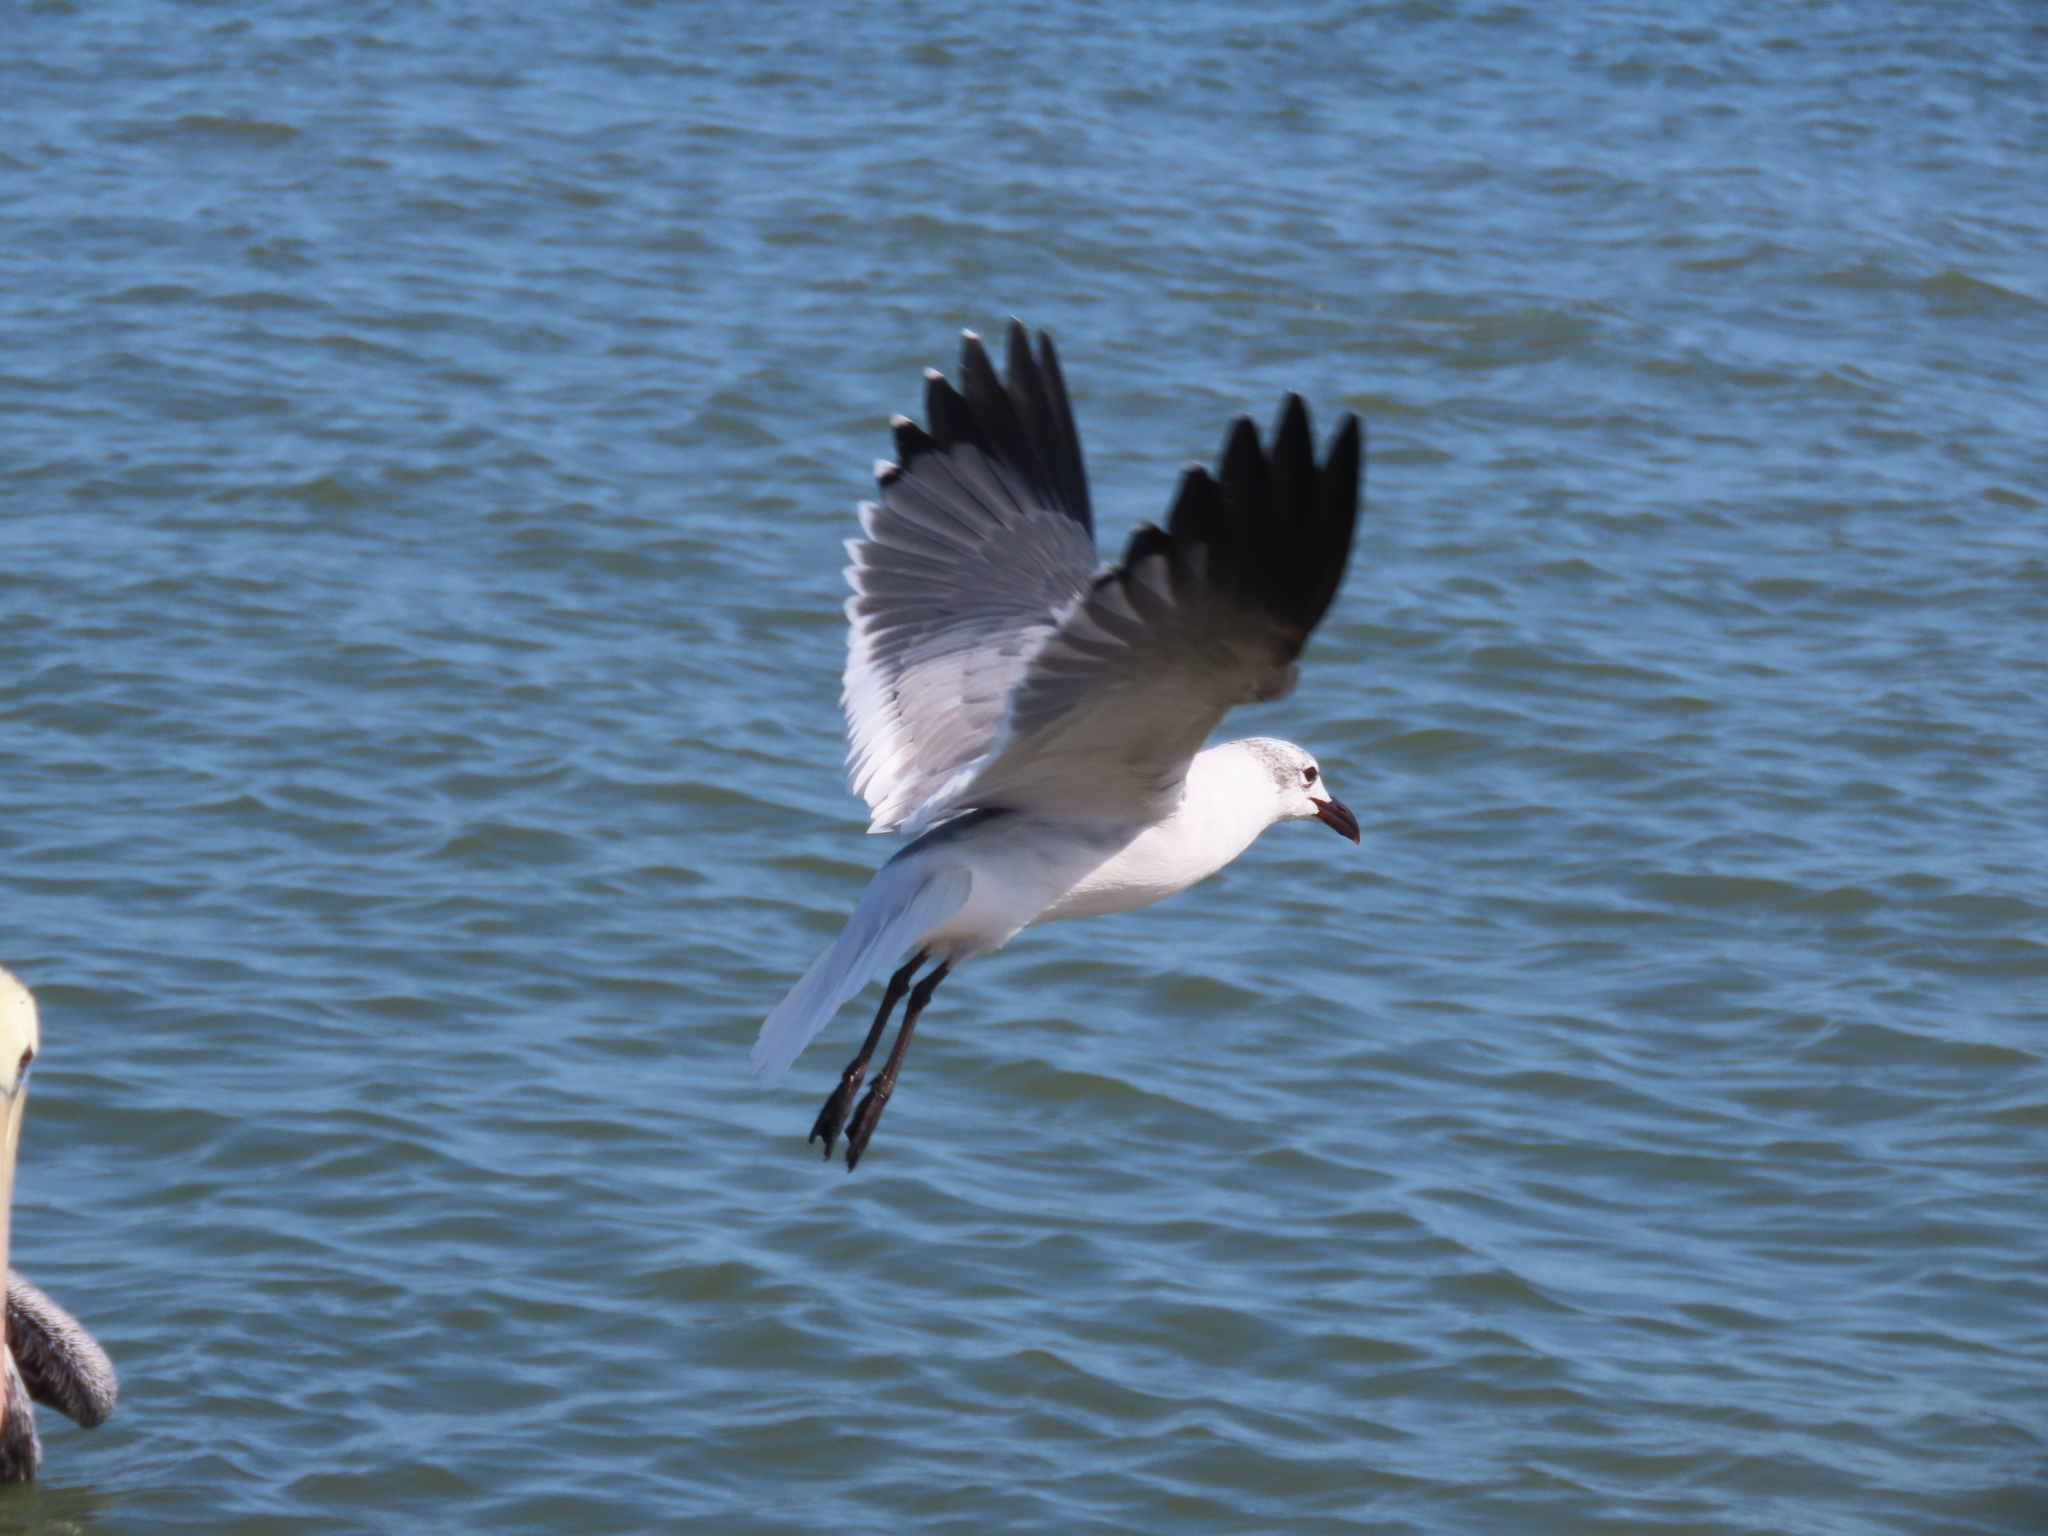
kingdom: Animalia
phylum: Chordata
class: Aves
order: Charadriiformes
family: Laridae
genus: Leucophaeus
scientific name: Leucophaeus atricilla
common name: Laughing gull
